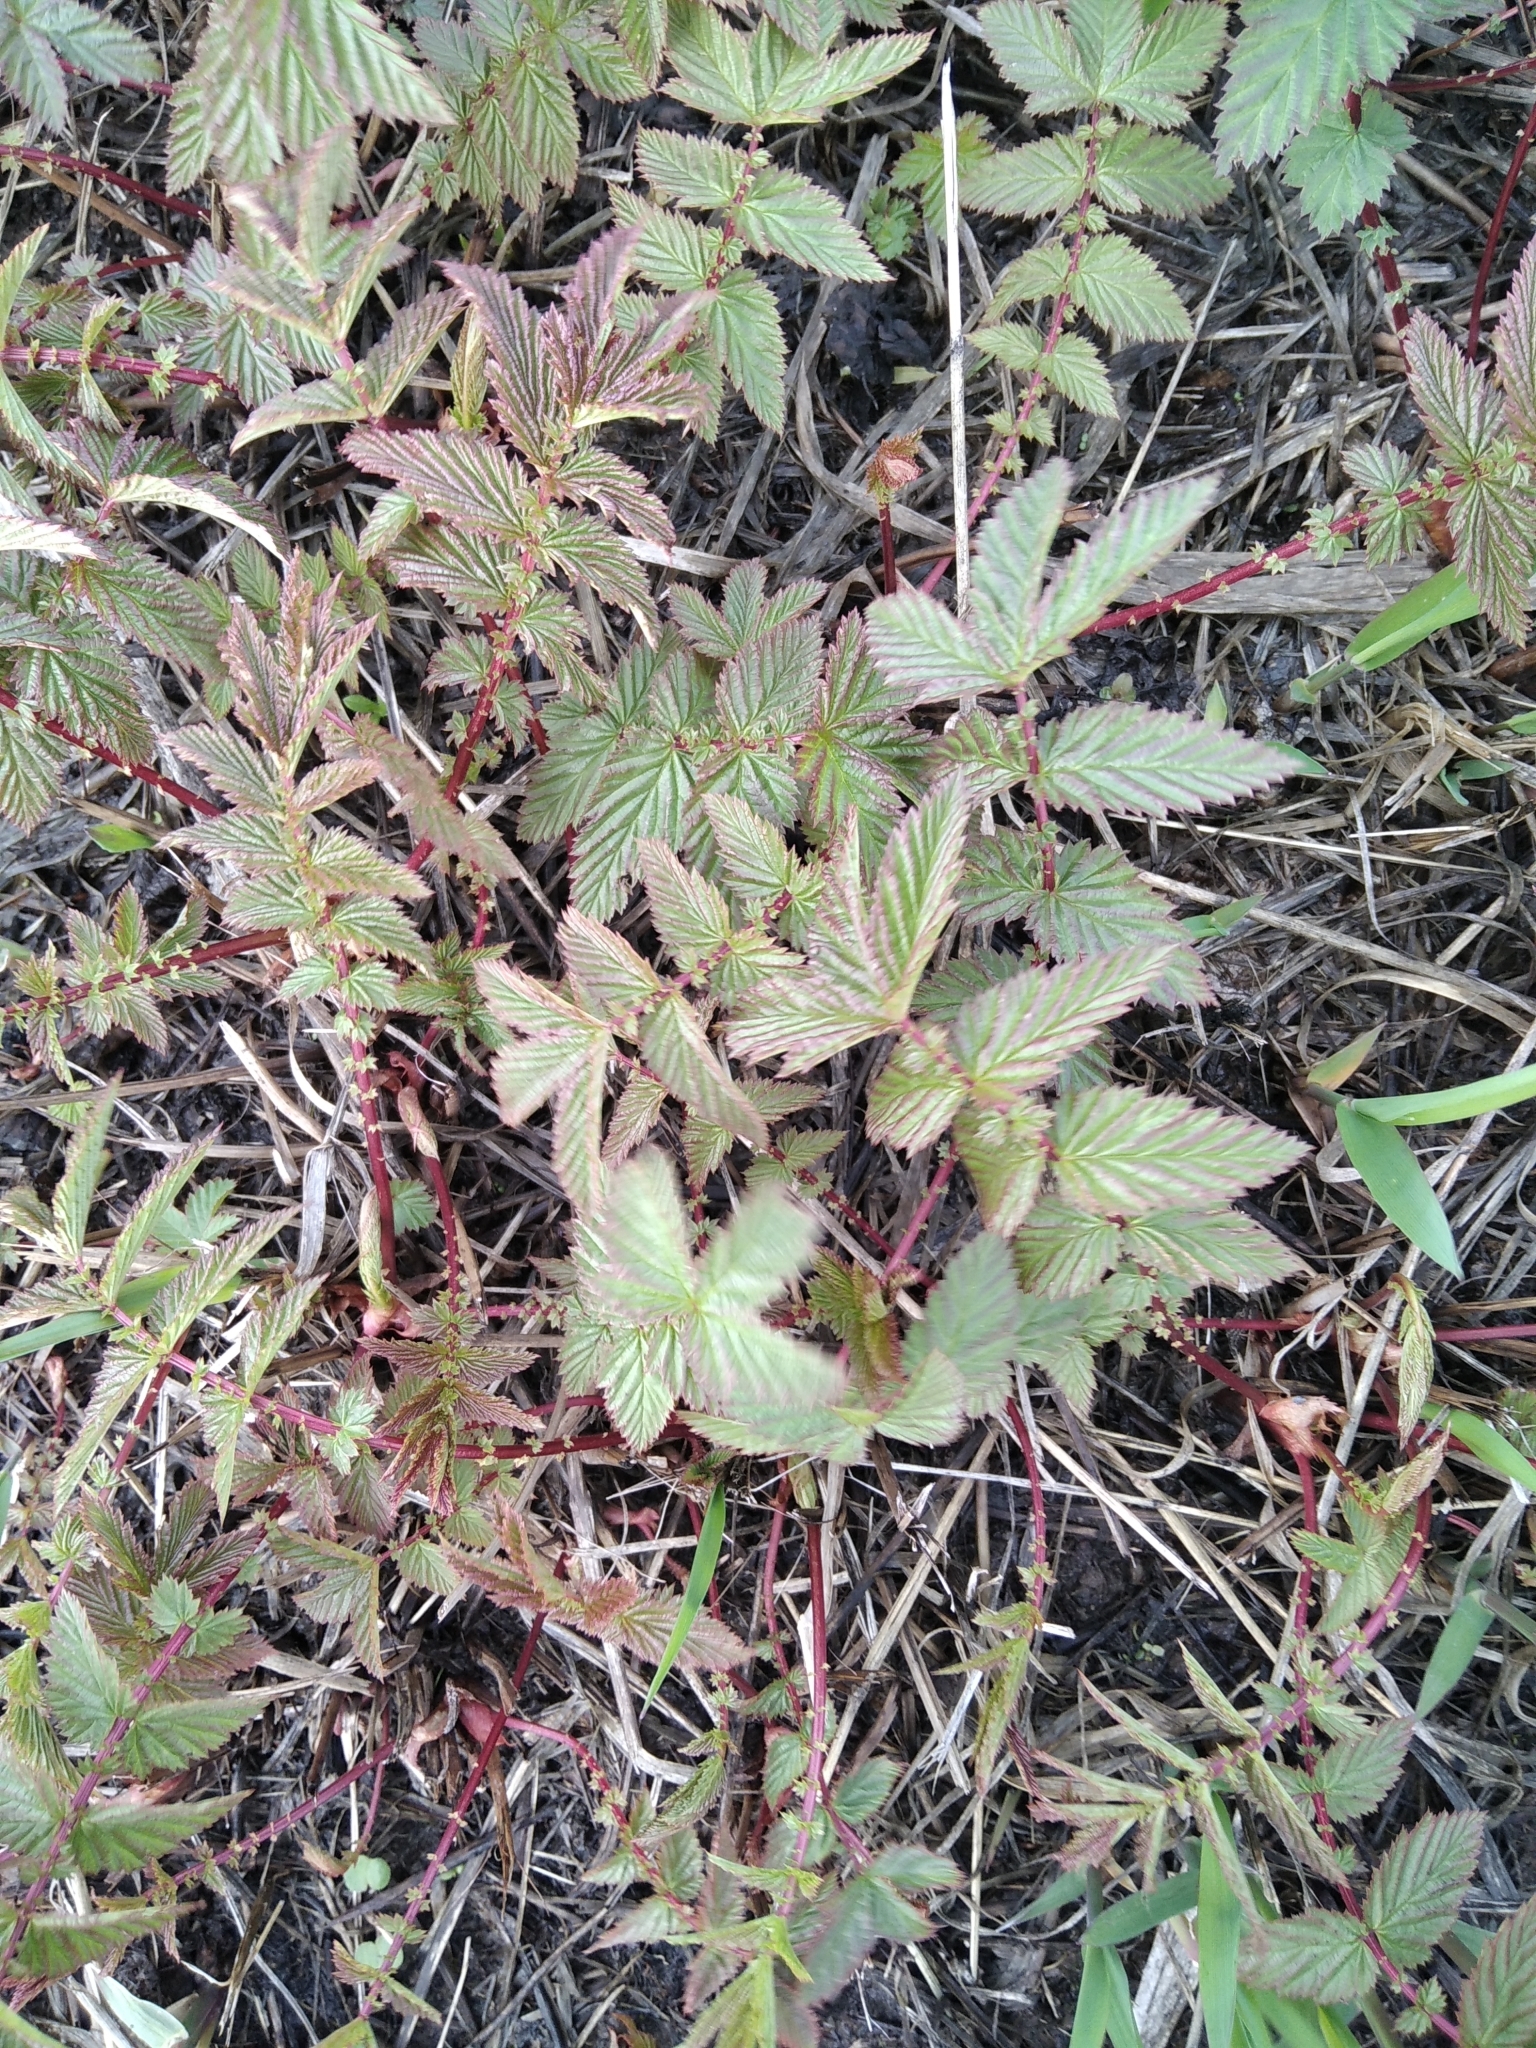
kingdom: Plantae
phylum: Tracheophyta
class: Magnoliopsida
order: Rosales
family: Rosaceae
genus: Filipendula
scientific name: Filipendula ulmaria
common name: Meadowsweet
